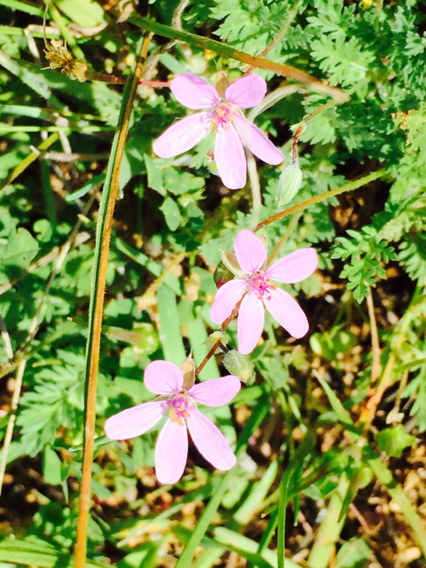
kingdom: Plantae
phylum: Tracheophyta
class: Magnoliopsida
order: Geraniales
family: Geraniaceae
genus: Erodium
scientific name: Erodium cicutarium
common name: Common stork's-bill
